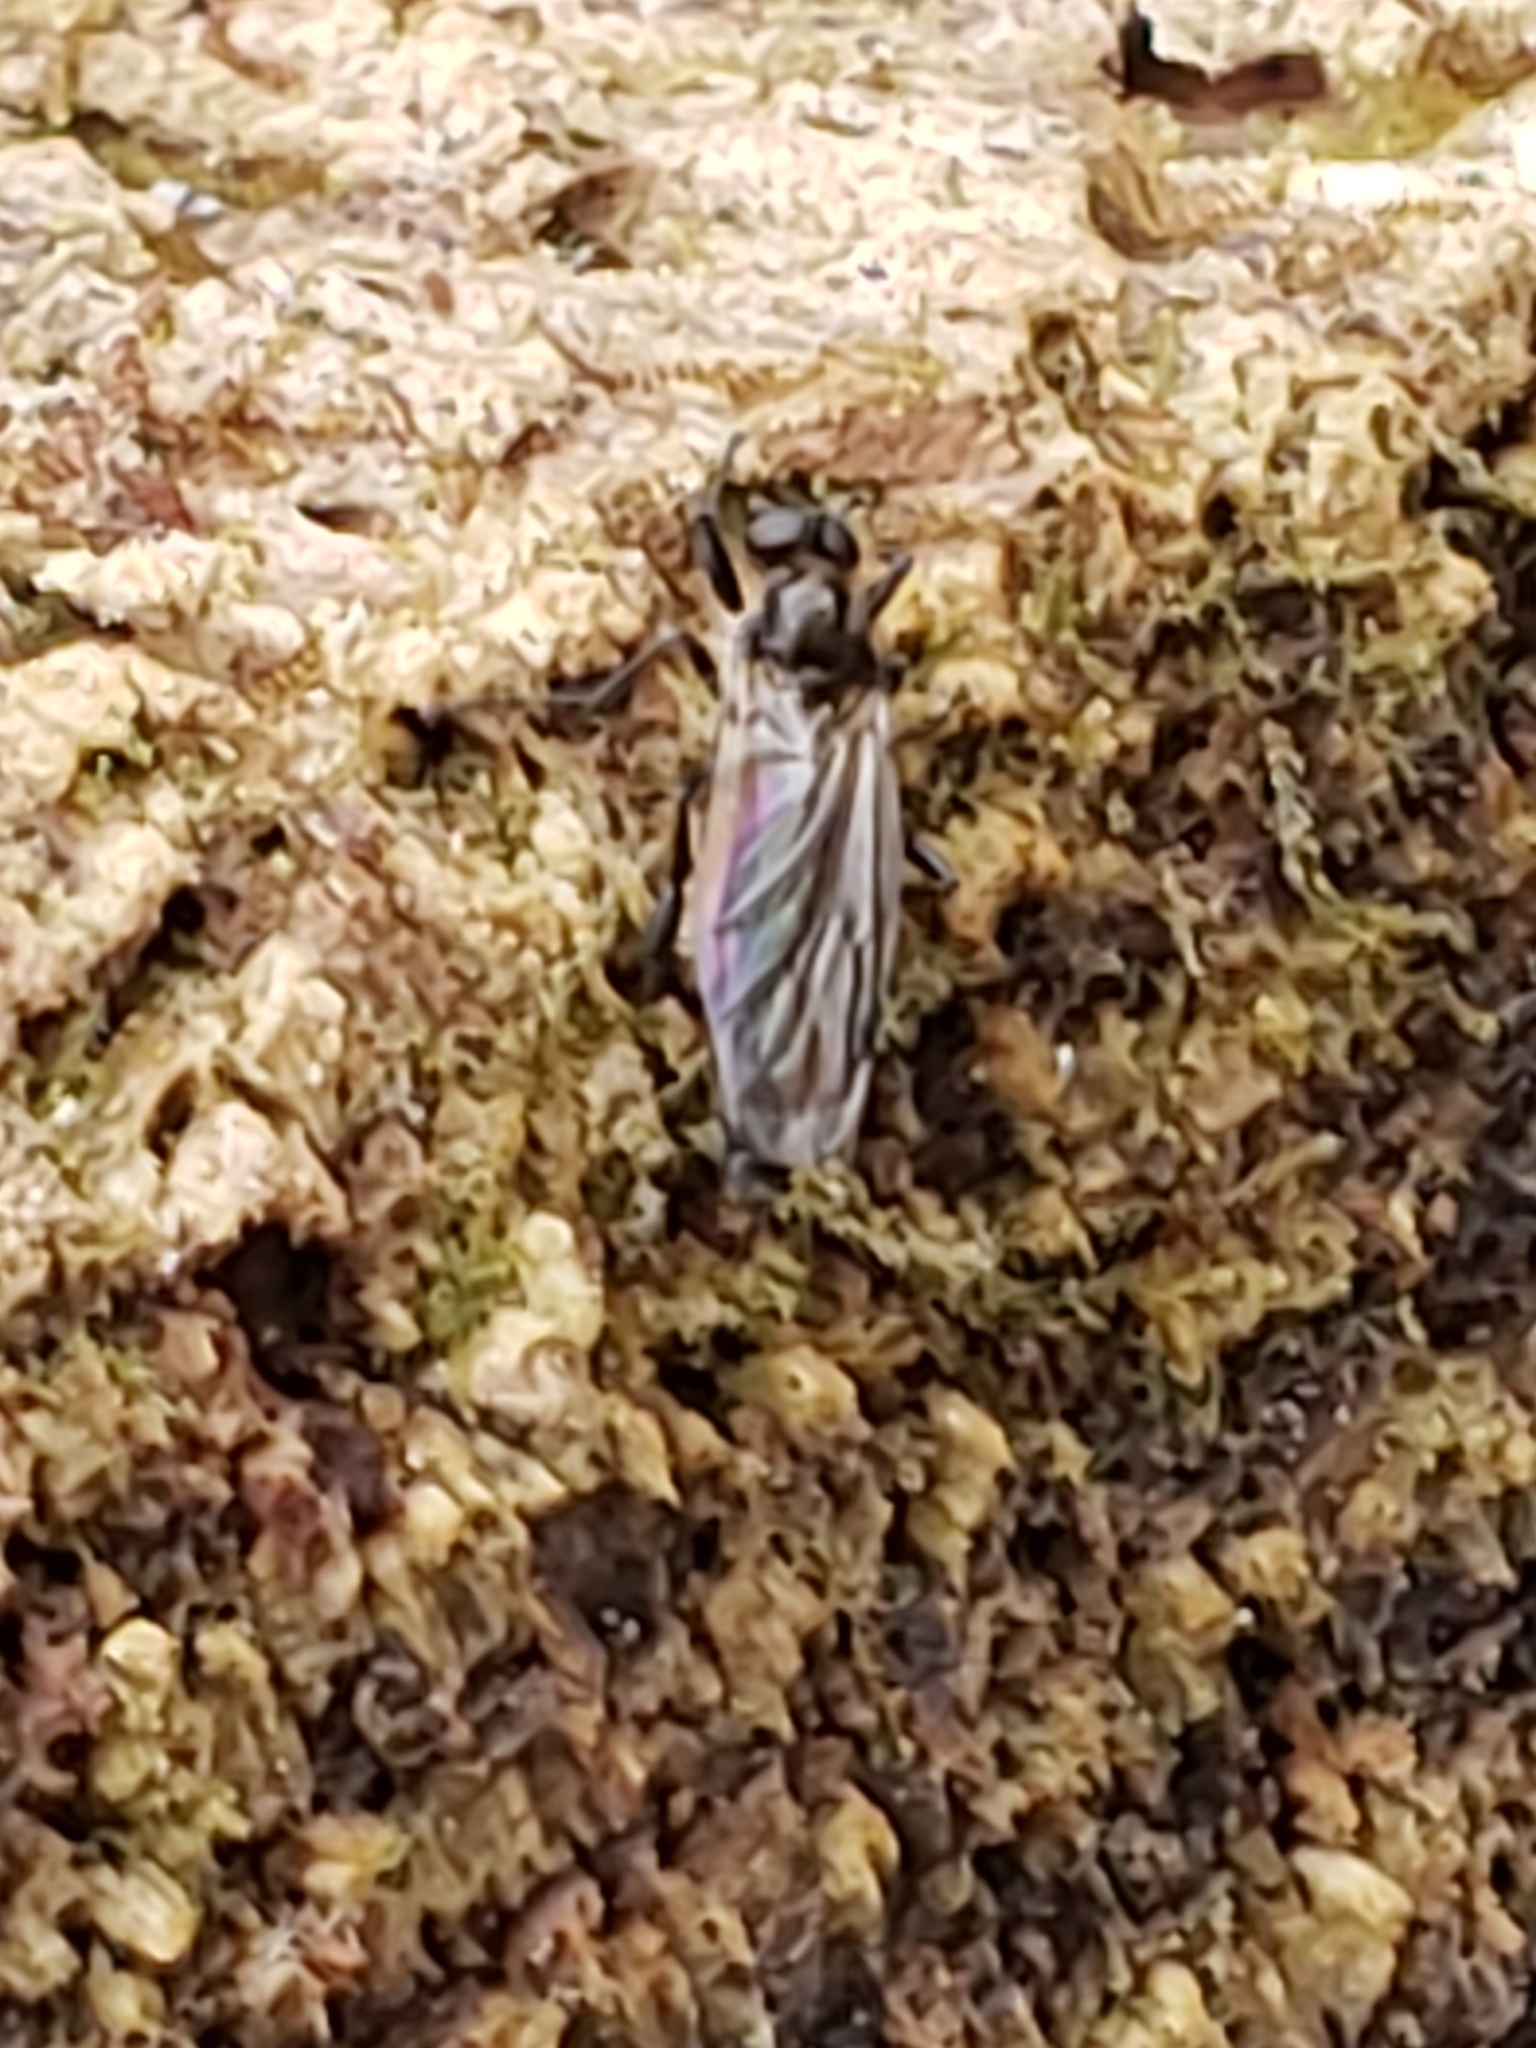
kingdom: Animalia
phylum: Arthropoda
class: Insecta
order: Diptera
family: Bibionidae
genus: Bibio
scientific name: Bibio longipes
